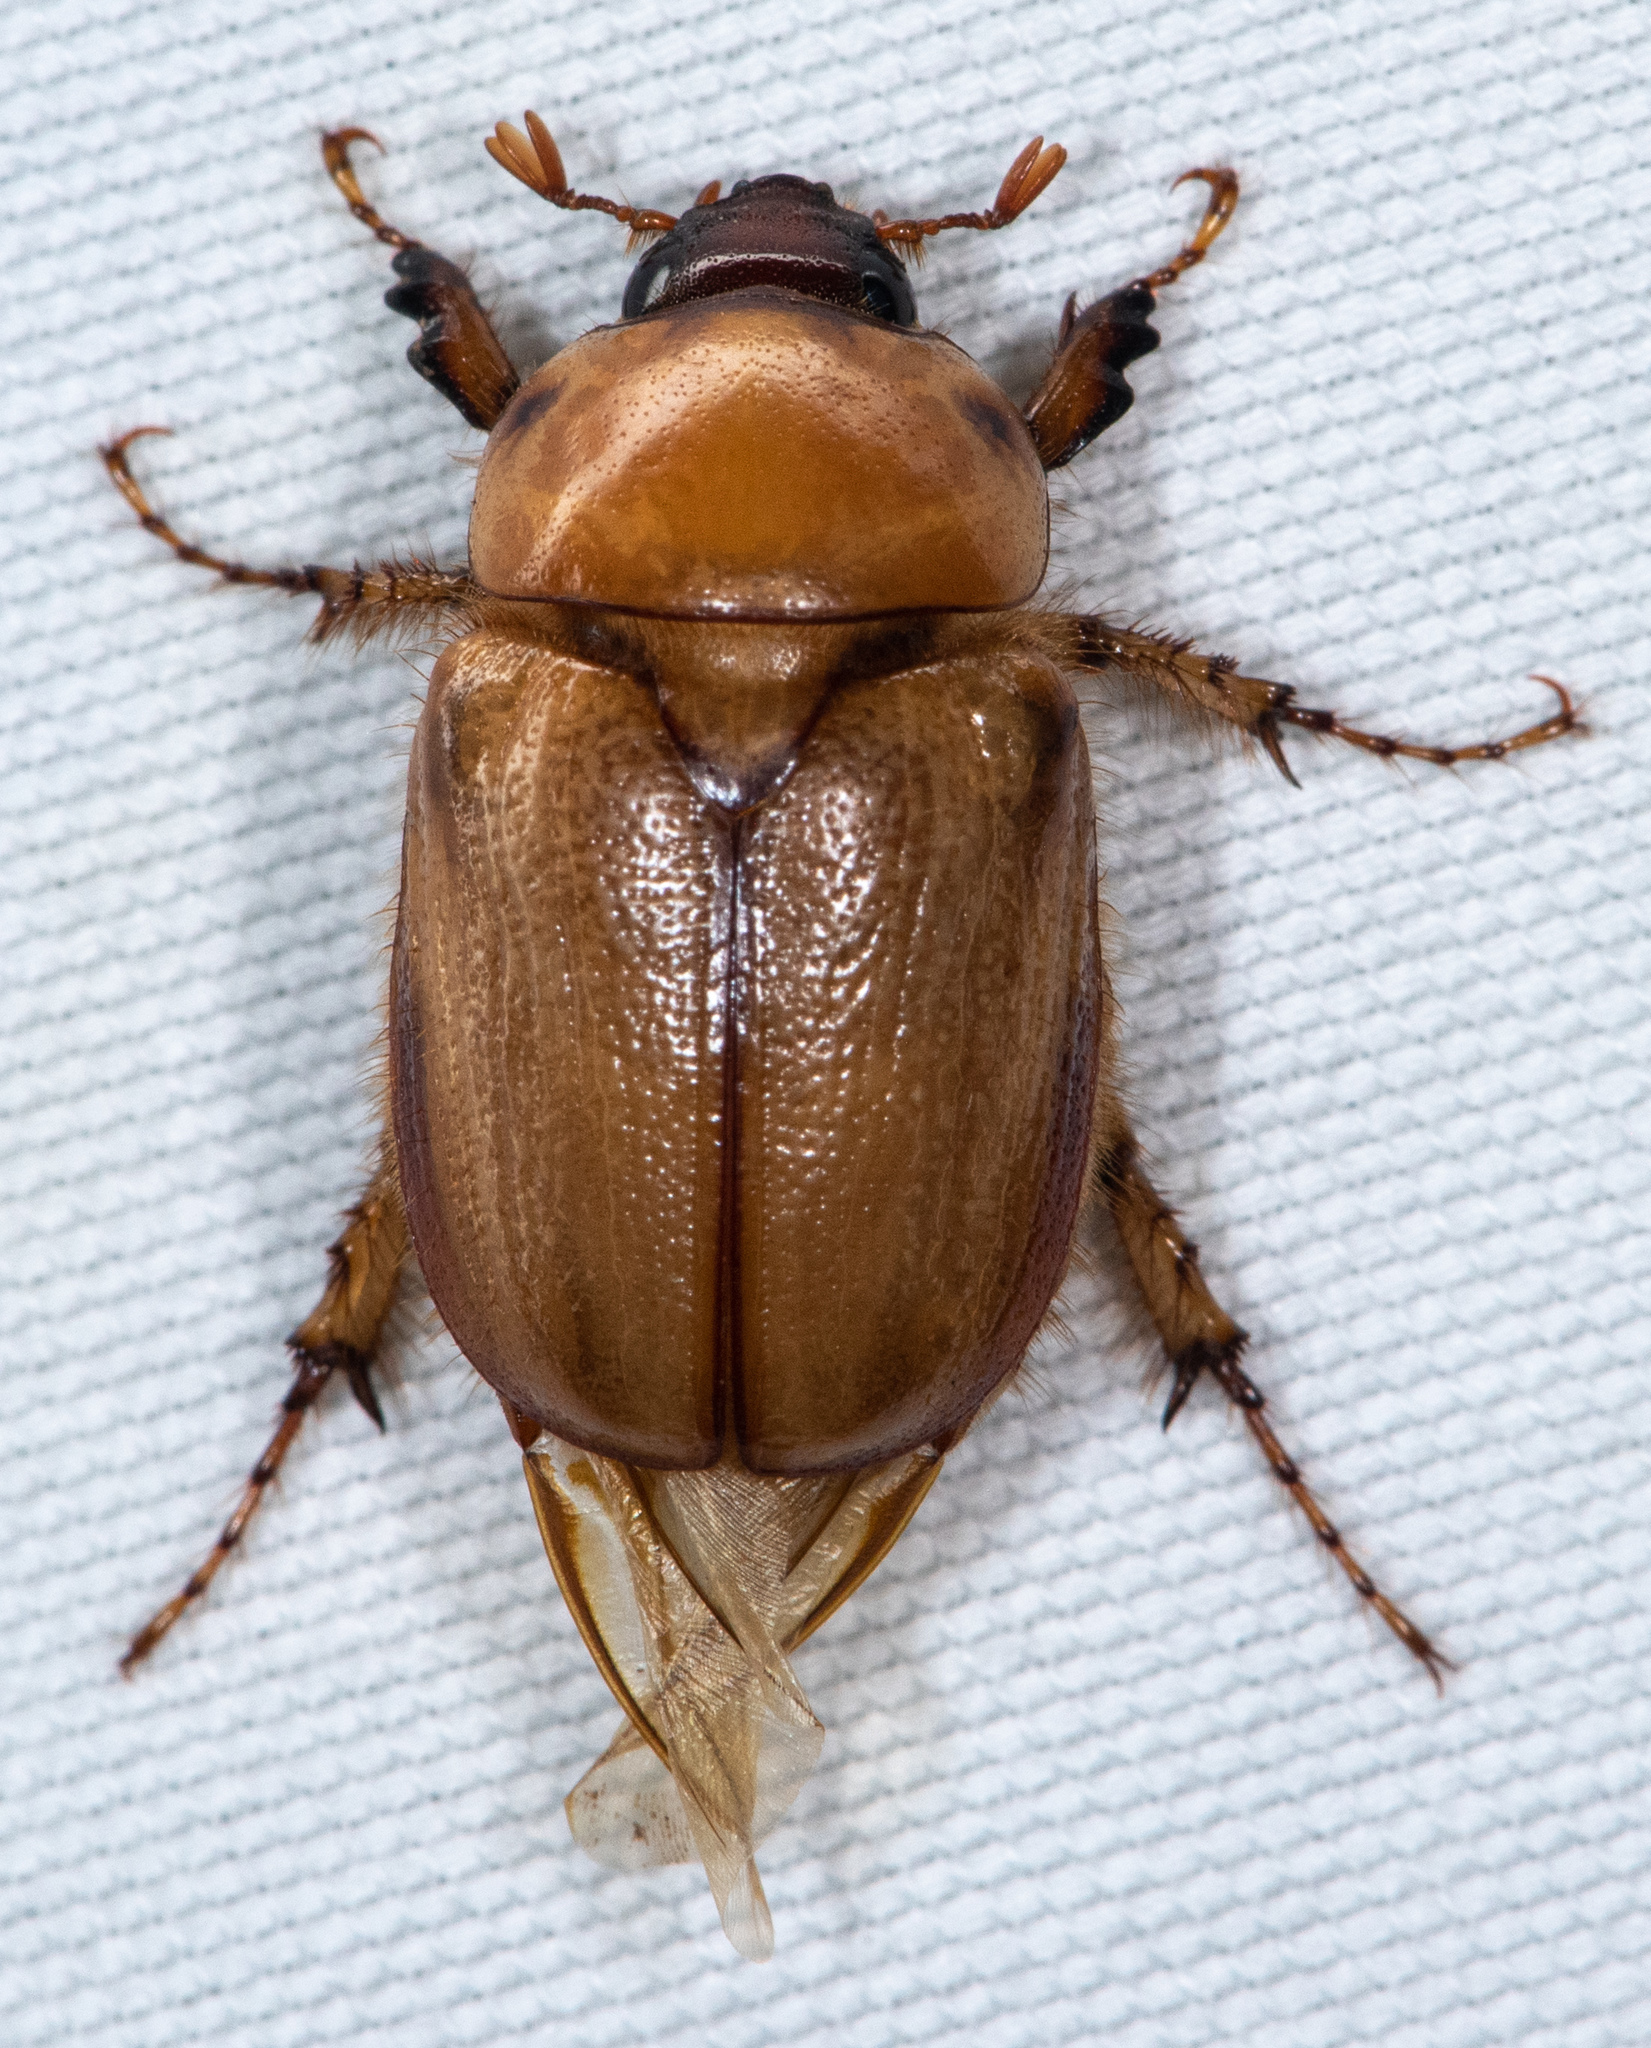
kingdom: Animalia
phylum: Arthropoda
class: Insecta
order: Coleoptera
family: Scarabaeidae
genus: Cyclocephala
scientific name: Cyclocephala hirta
